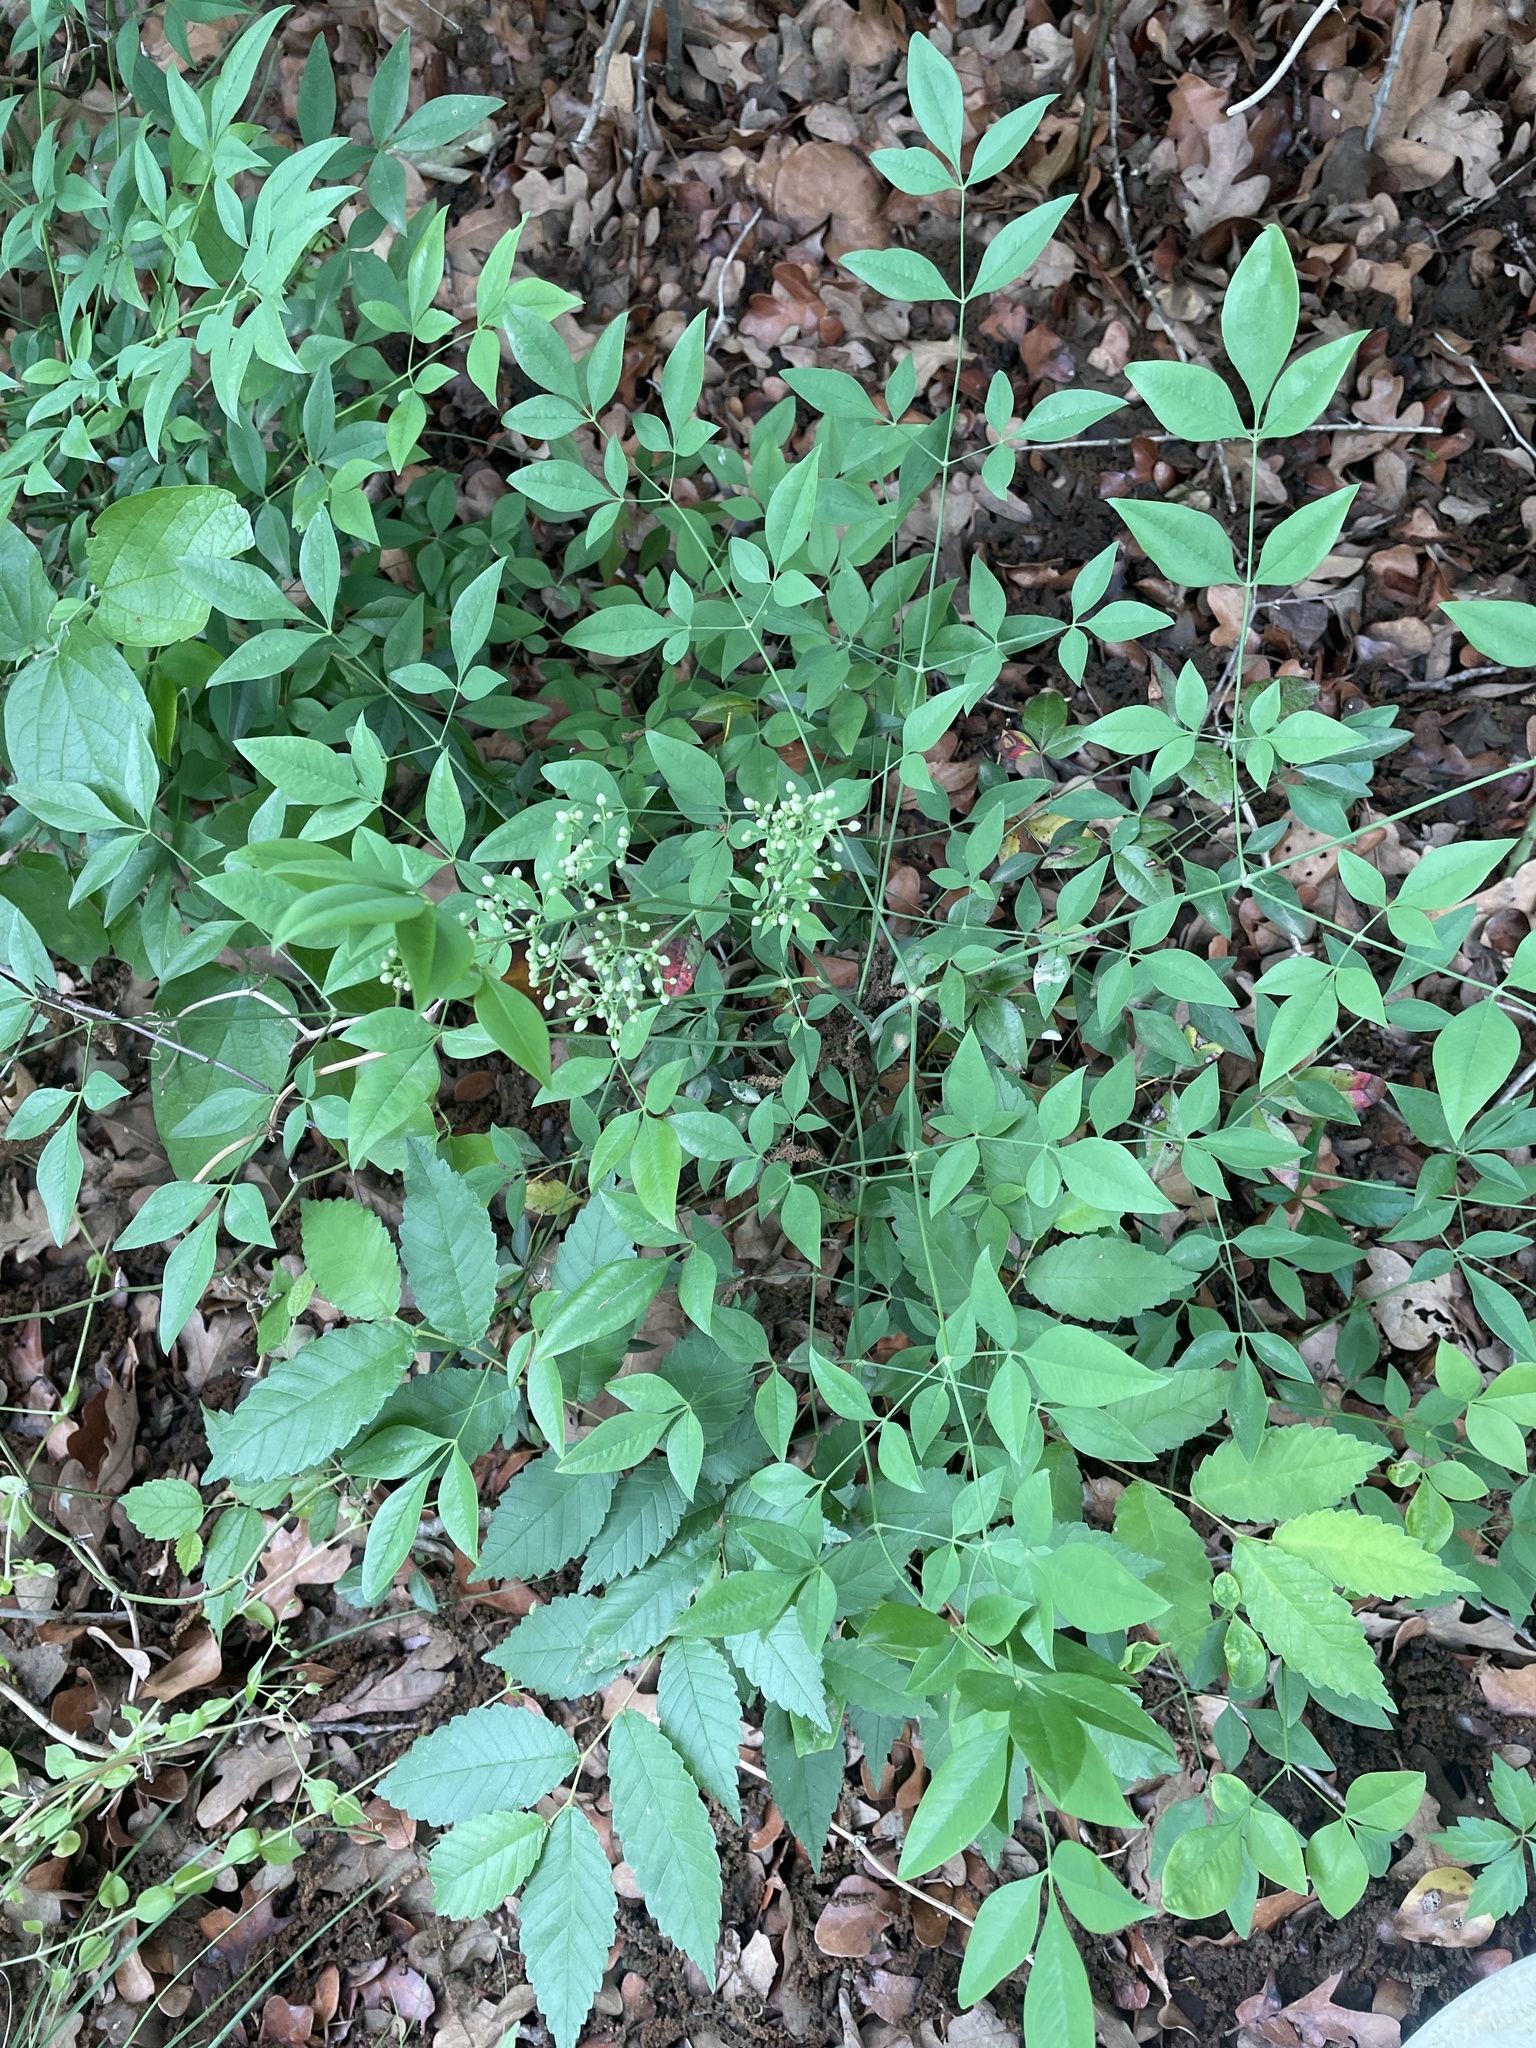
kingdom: Plantae
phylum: Tracheophyta
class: Magnoliopsida
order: Ranunculales
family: Berberidaceae
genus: Nandina
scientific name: Nandina domestica
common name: Sacred bamboo
